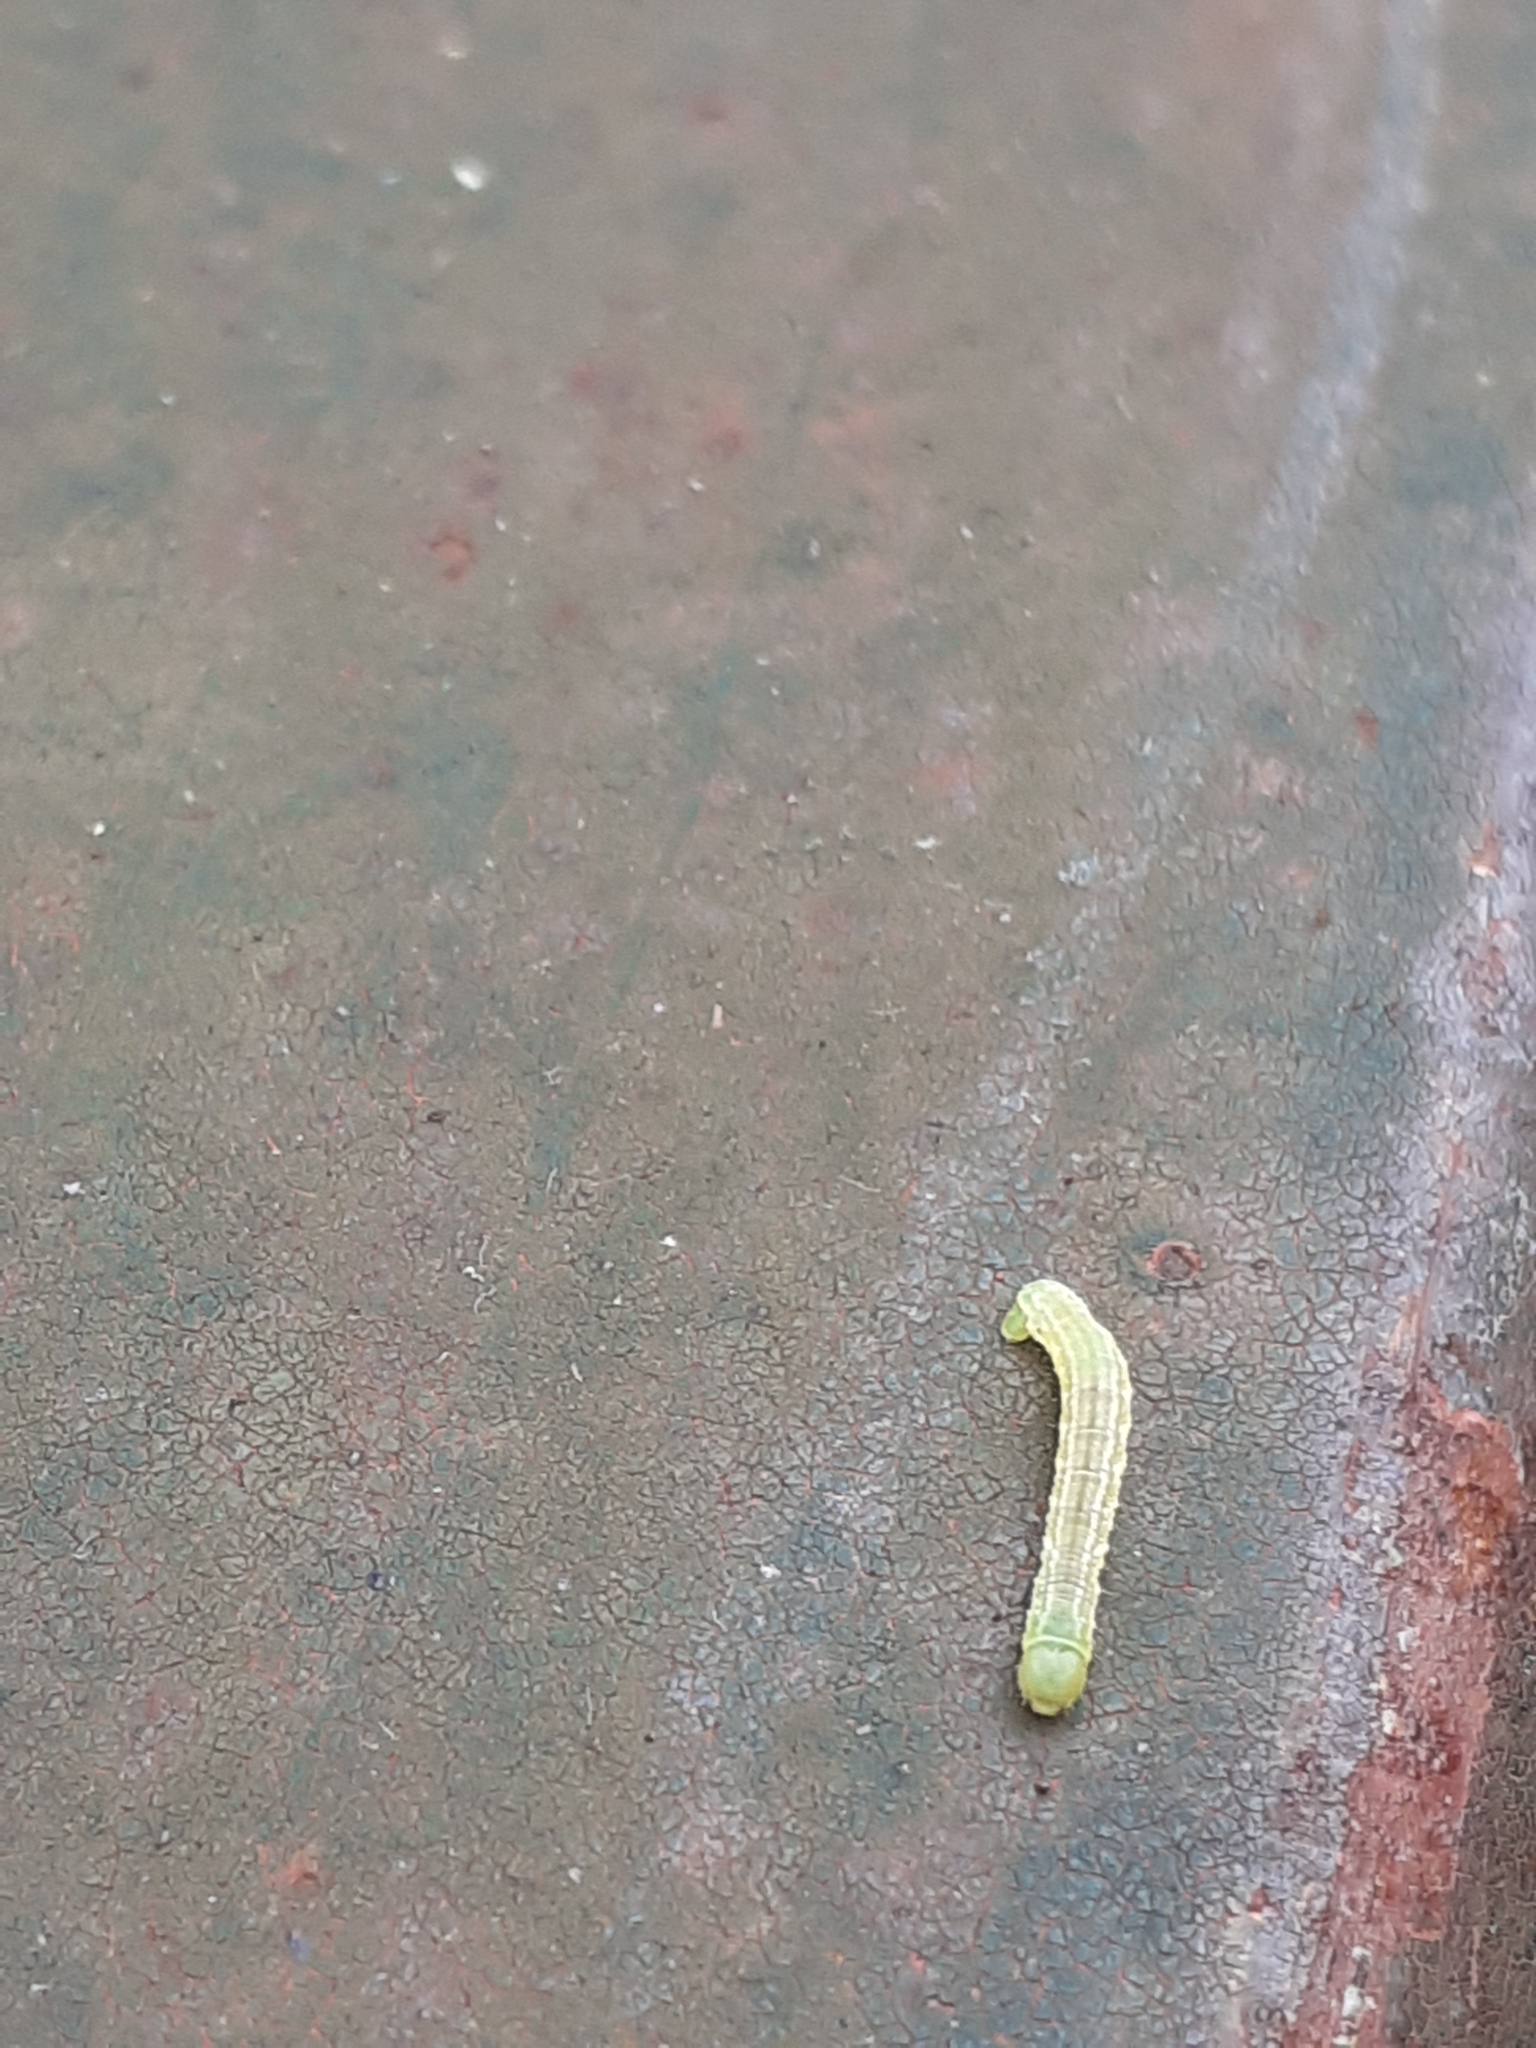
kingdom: Animalia
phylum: Arthropoda
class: Insecta
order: Lepidoptera
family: Geometridae
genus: Operophtera
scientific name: Operophtera brumata
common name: Winter moth
